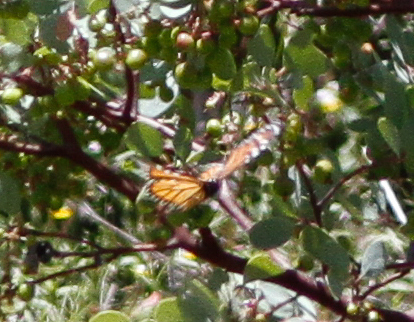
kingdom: Animalia
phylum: Arthropoda
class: Insecta
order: Lepidoptera
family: Nymphalidae
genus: Danaus
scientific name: Danaus plexippus
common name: Monarch
